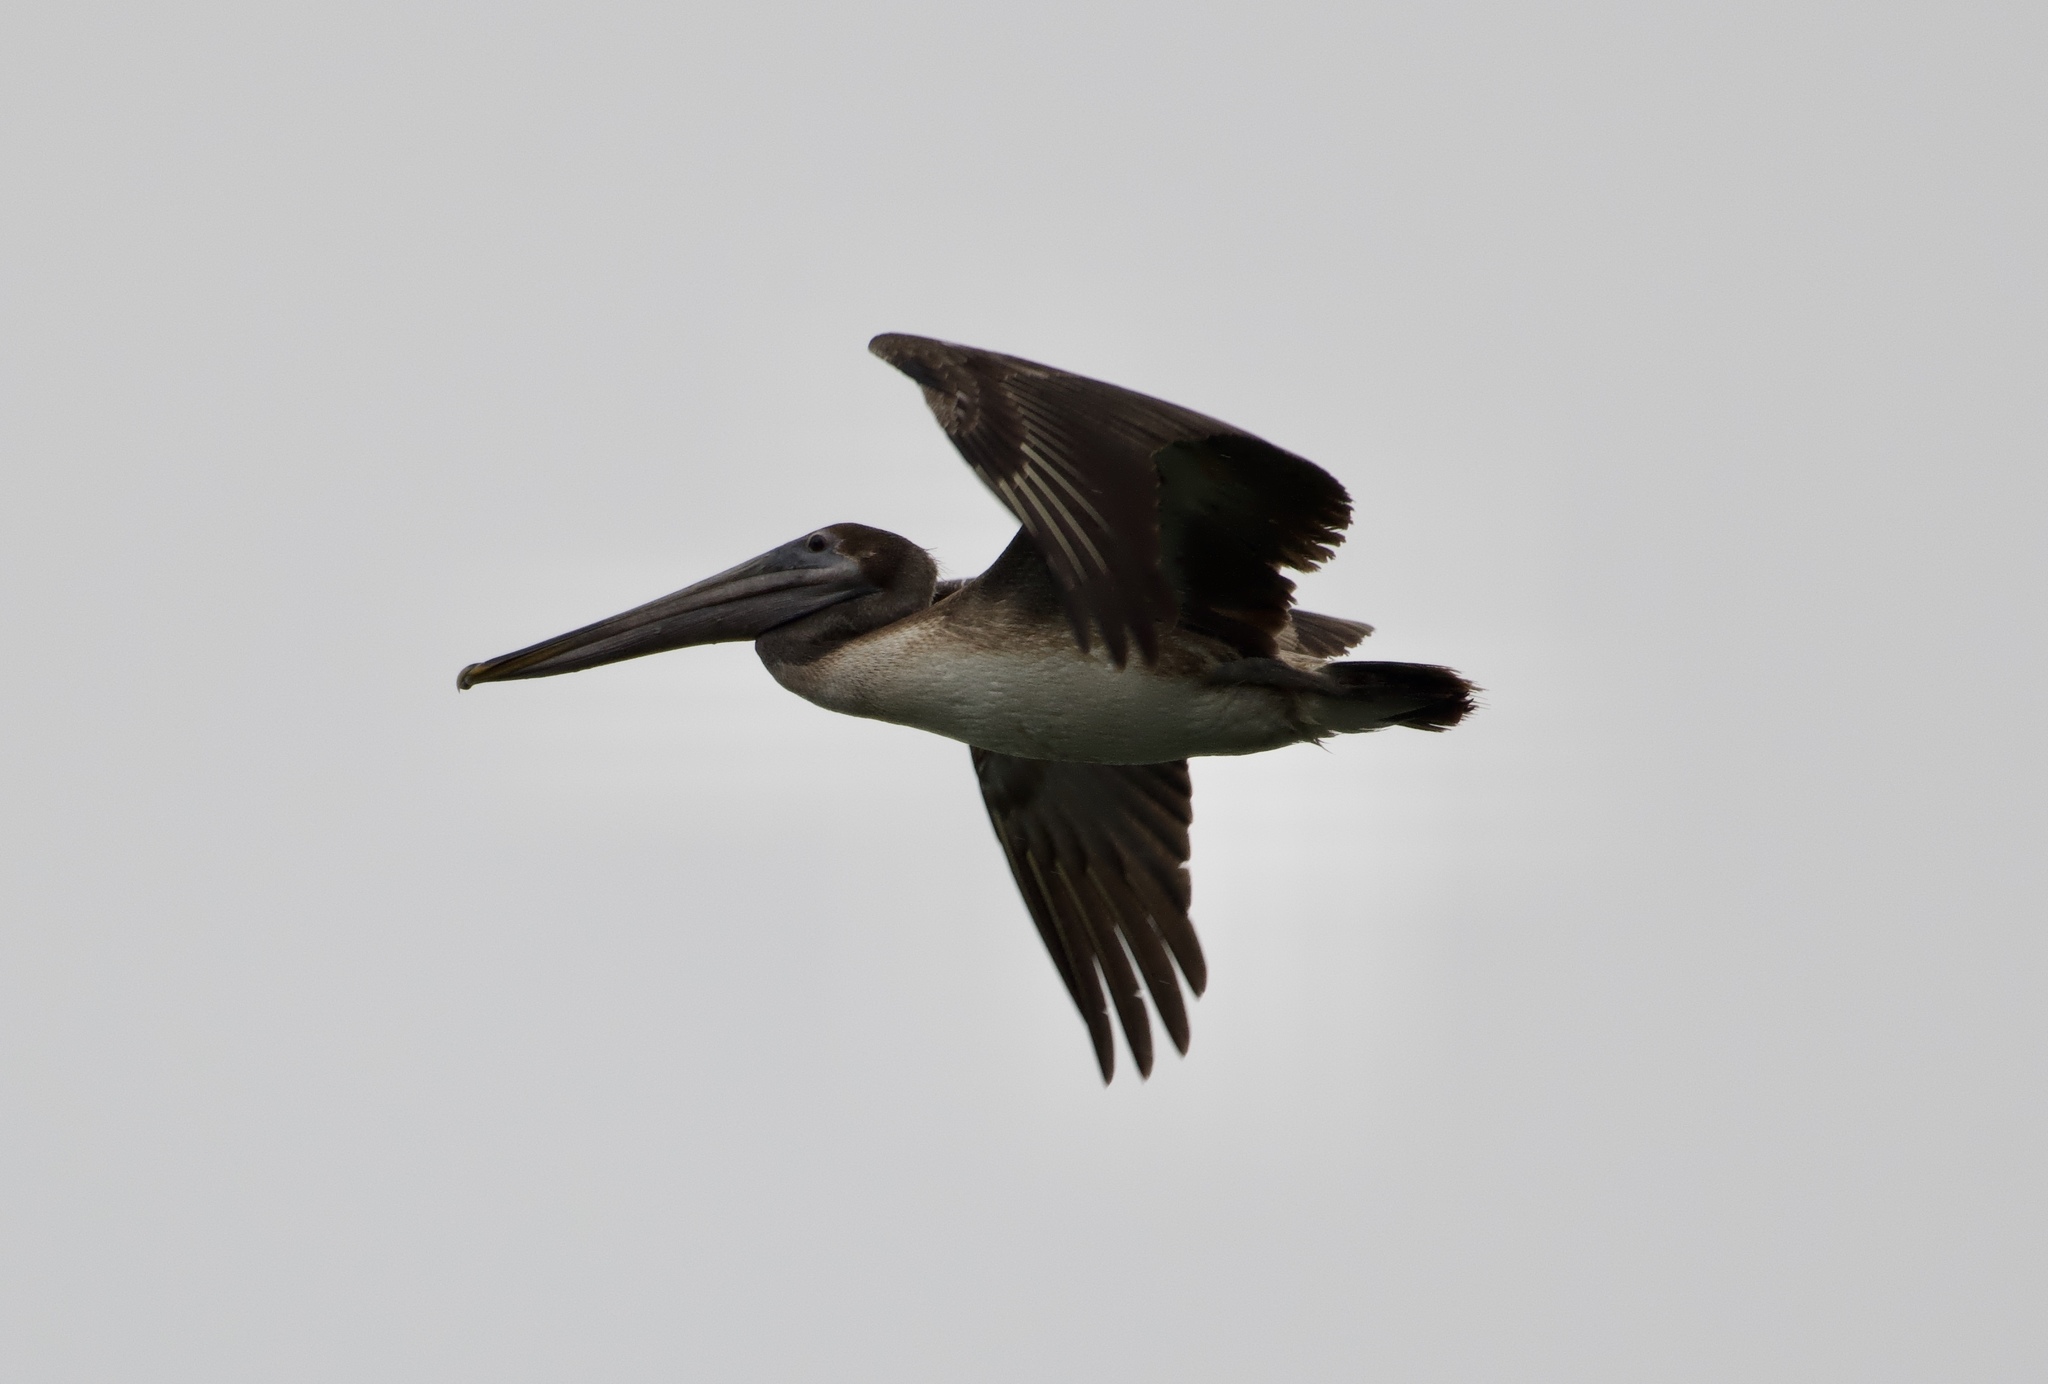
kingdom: Animalia
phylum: Chordata
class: Aves
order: Pelecaniformes
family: Pelecanidae
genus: Pelecanus
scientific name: Pelecanus occidentalis
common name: Brown pelican
